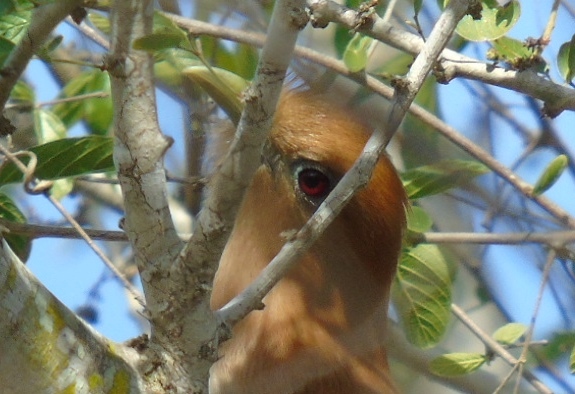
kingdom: Animalia
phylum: Chordata
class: Aves
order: Cuculiformes
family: Cuculidae
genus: Piaya
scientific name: Piaya cayana
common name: Squirrel cuckoo
